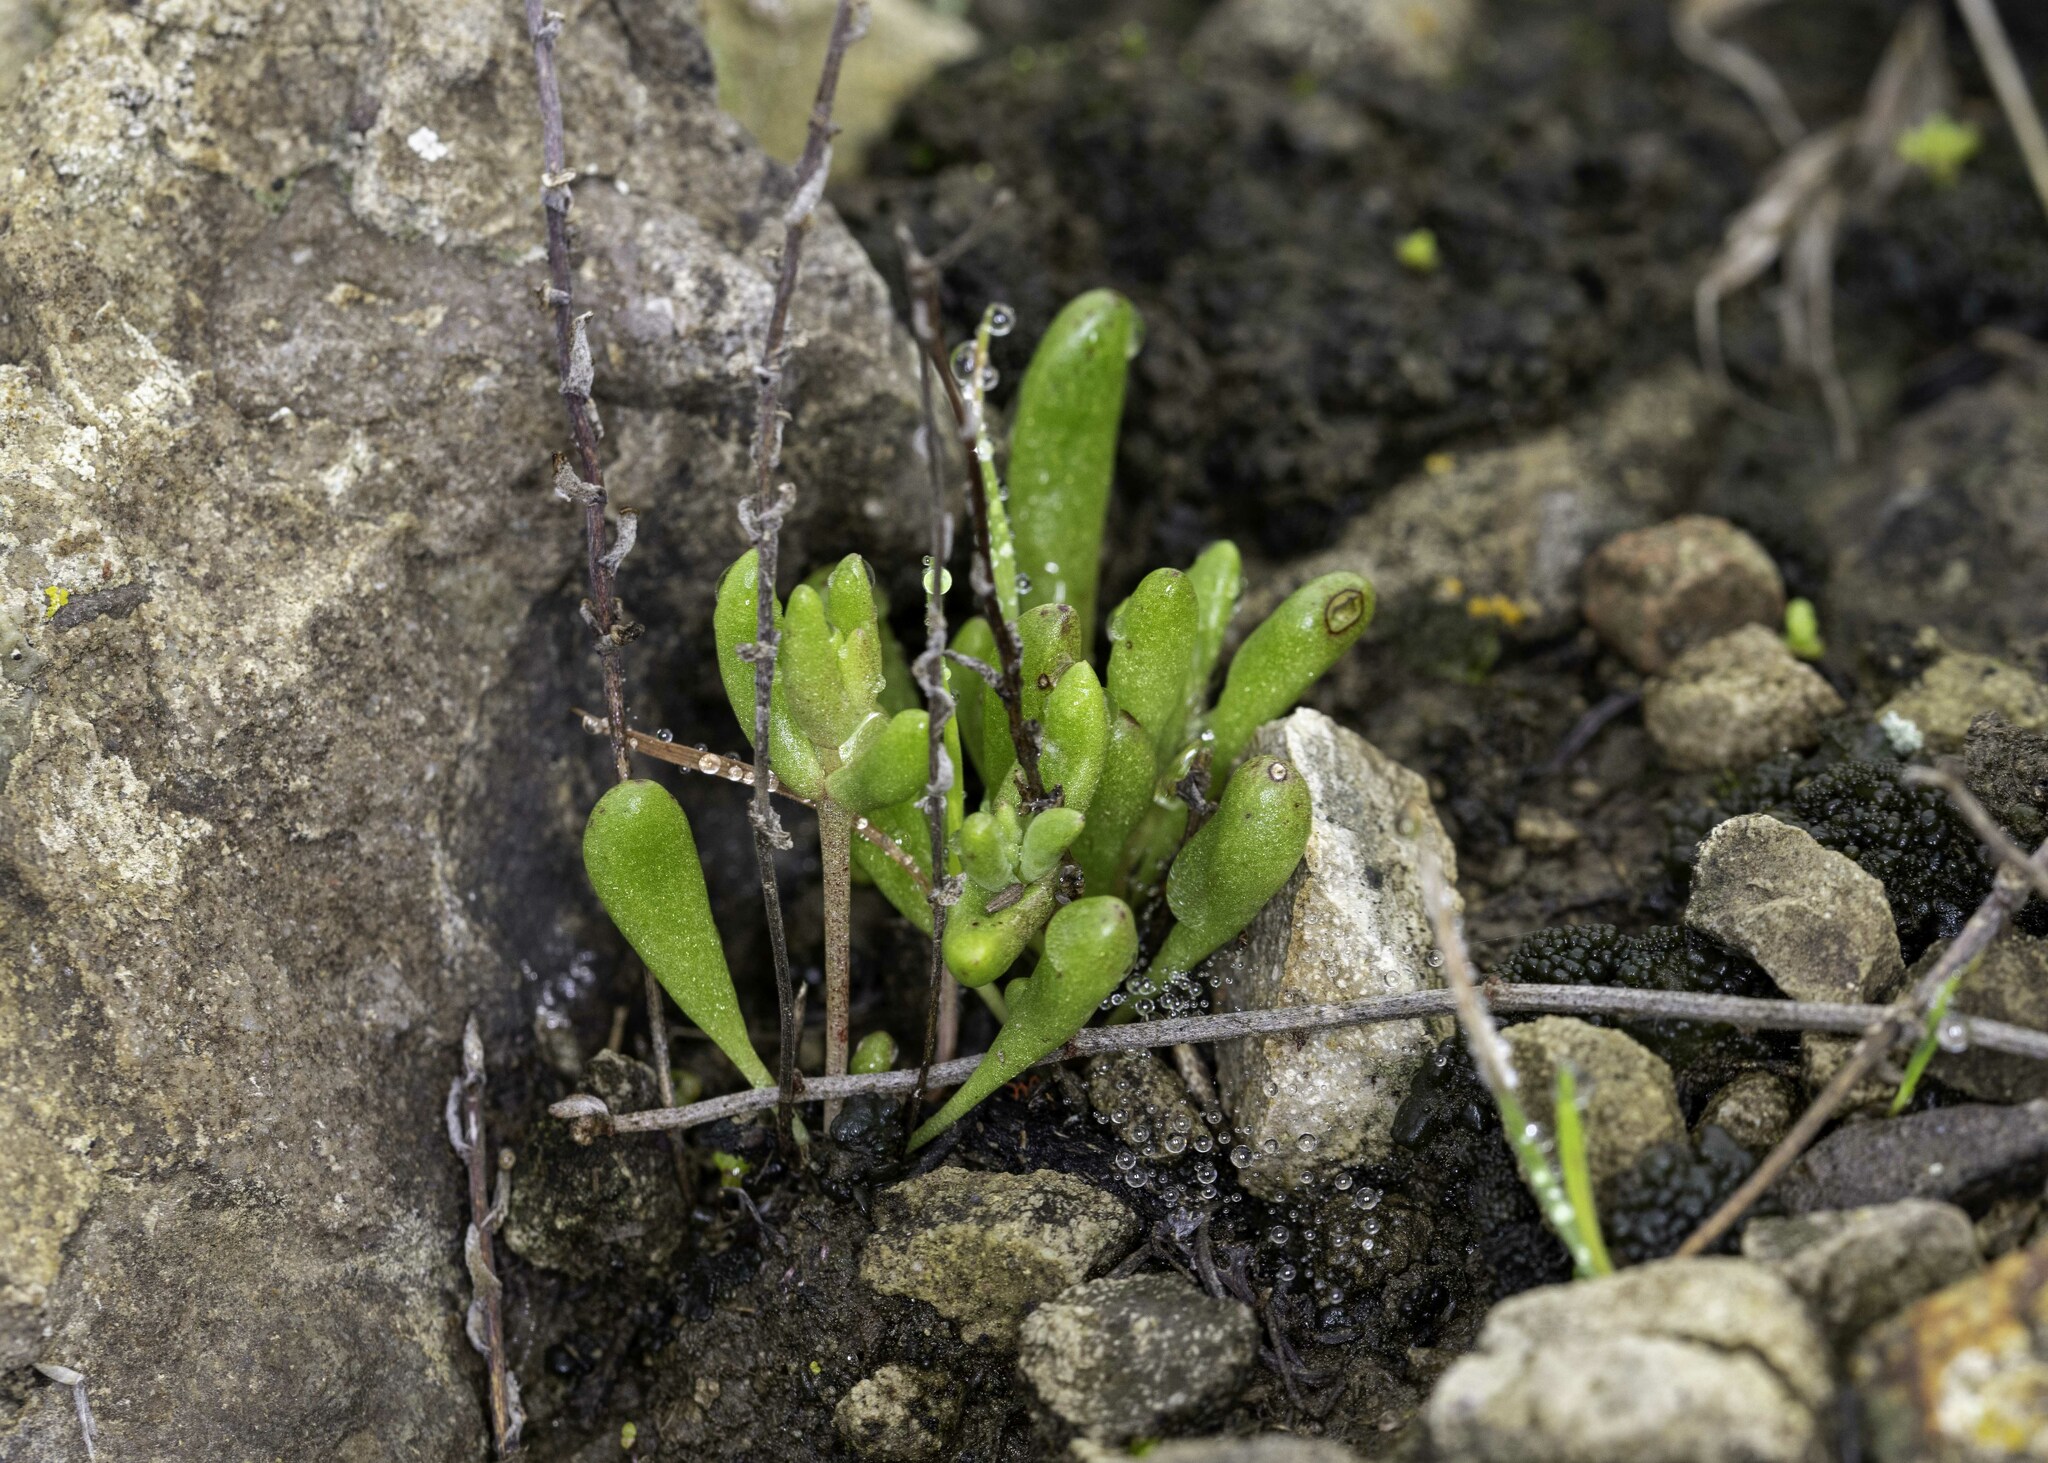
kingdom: Plantae
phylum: Tracheophyta
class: Magnoliopsida
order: Saxifragales
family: Crassulaceae
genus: Dudleya
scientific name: Dudleya blochmaniae
